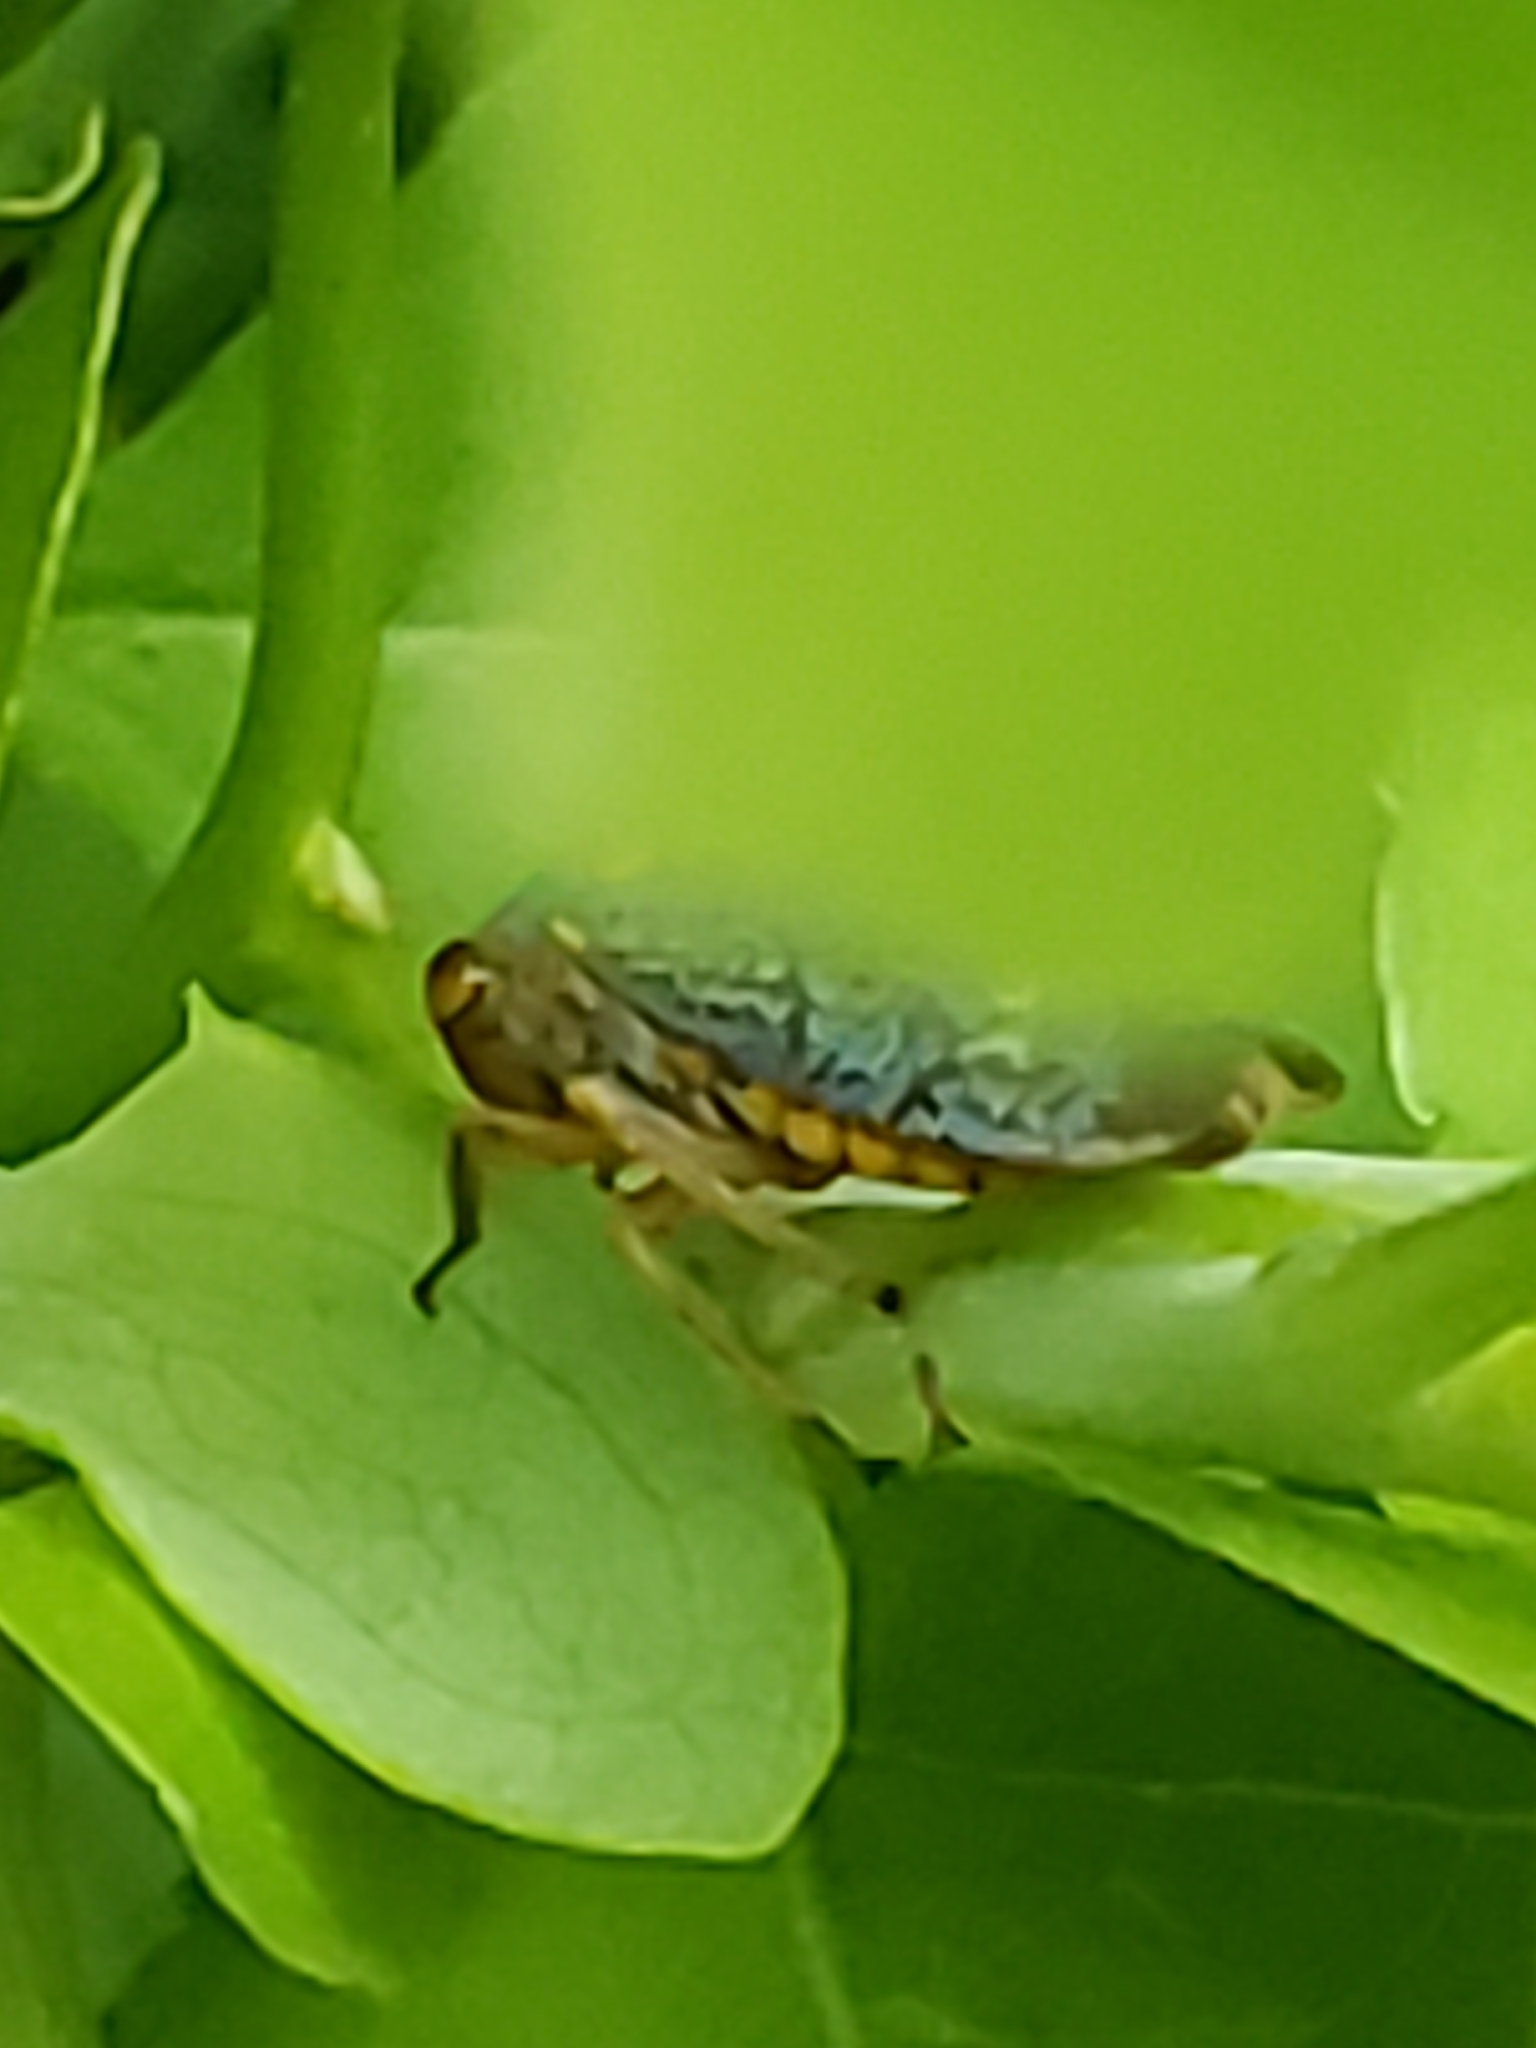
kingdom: Animalia
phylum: Arthropoda
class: Insecta
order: Hemiptera
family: Cicadellidae
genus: Oncometopia
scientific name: Oncometopia orbona
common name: Broad-headed sharpshooter
